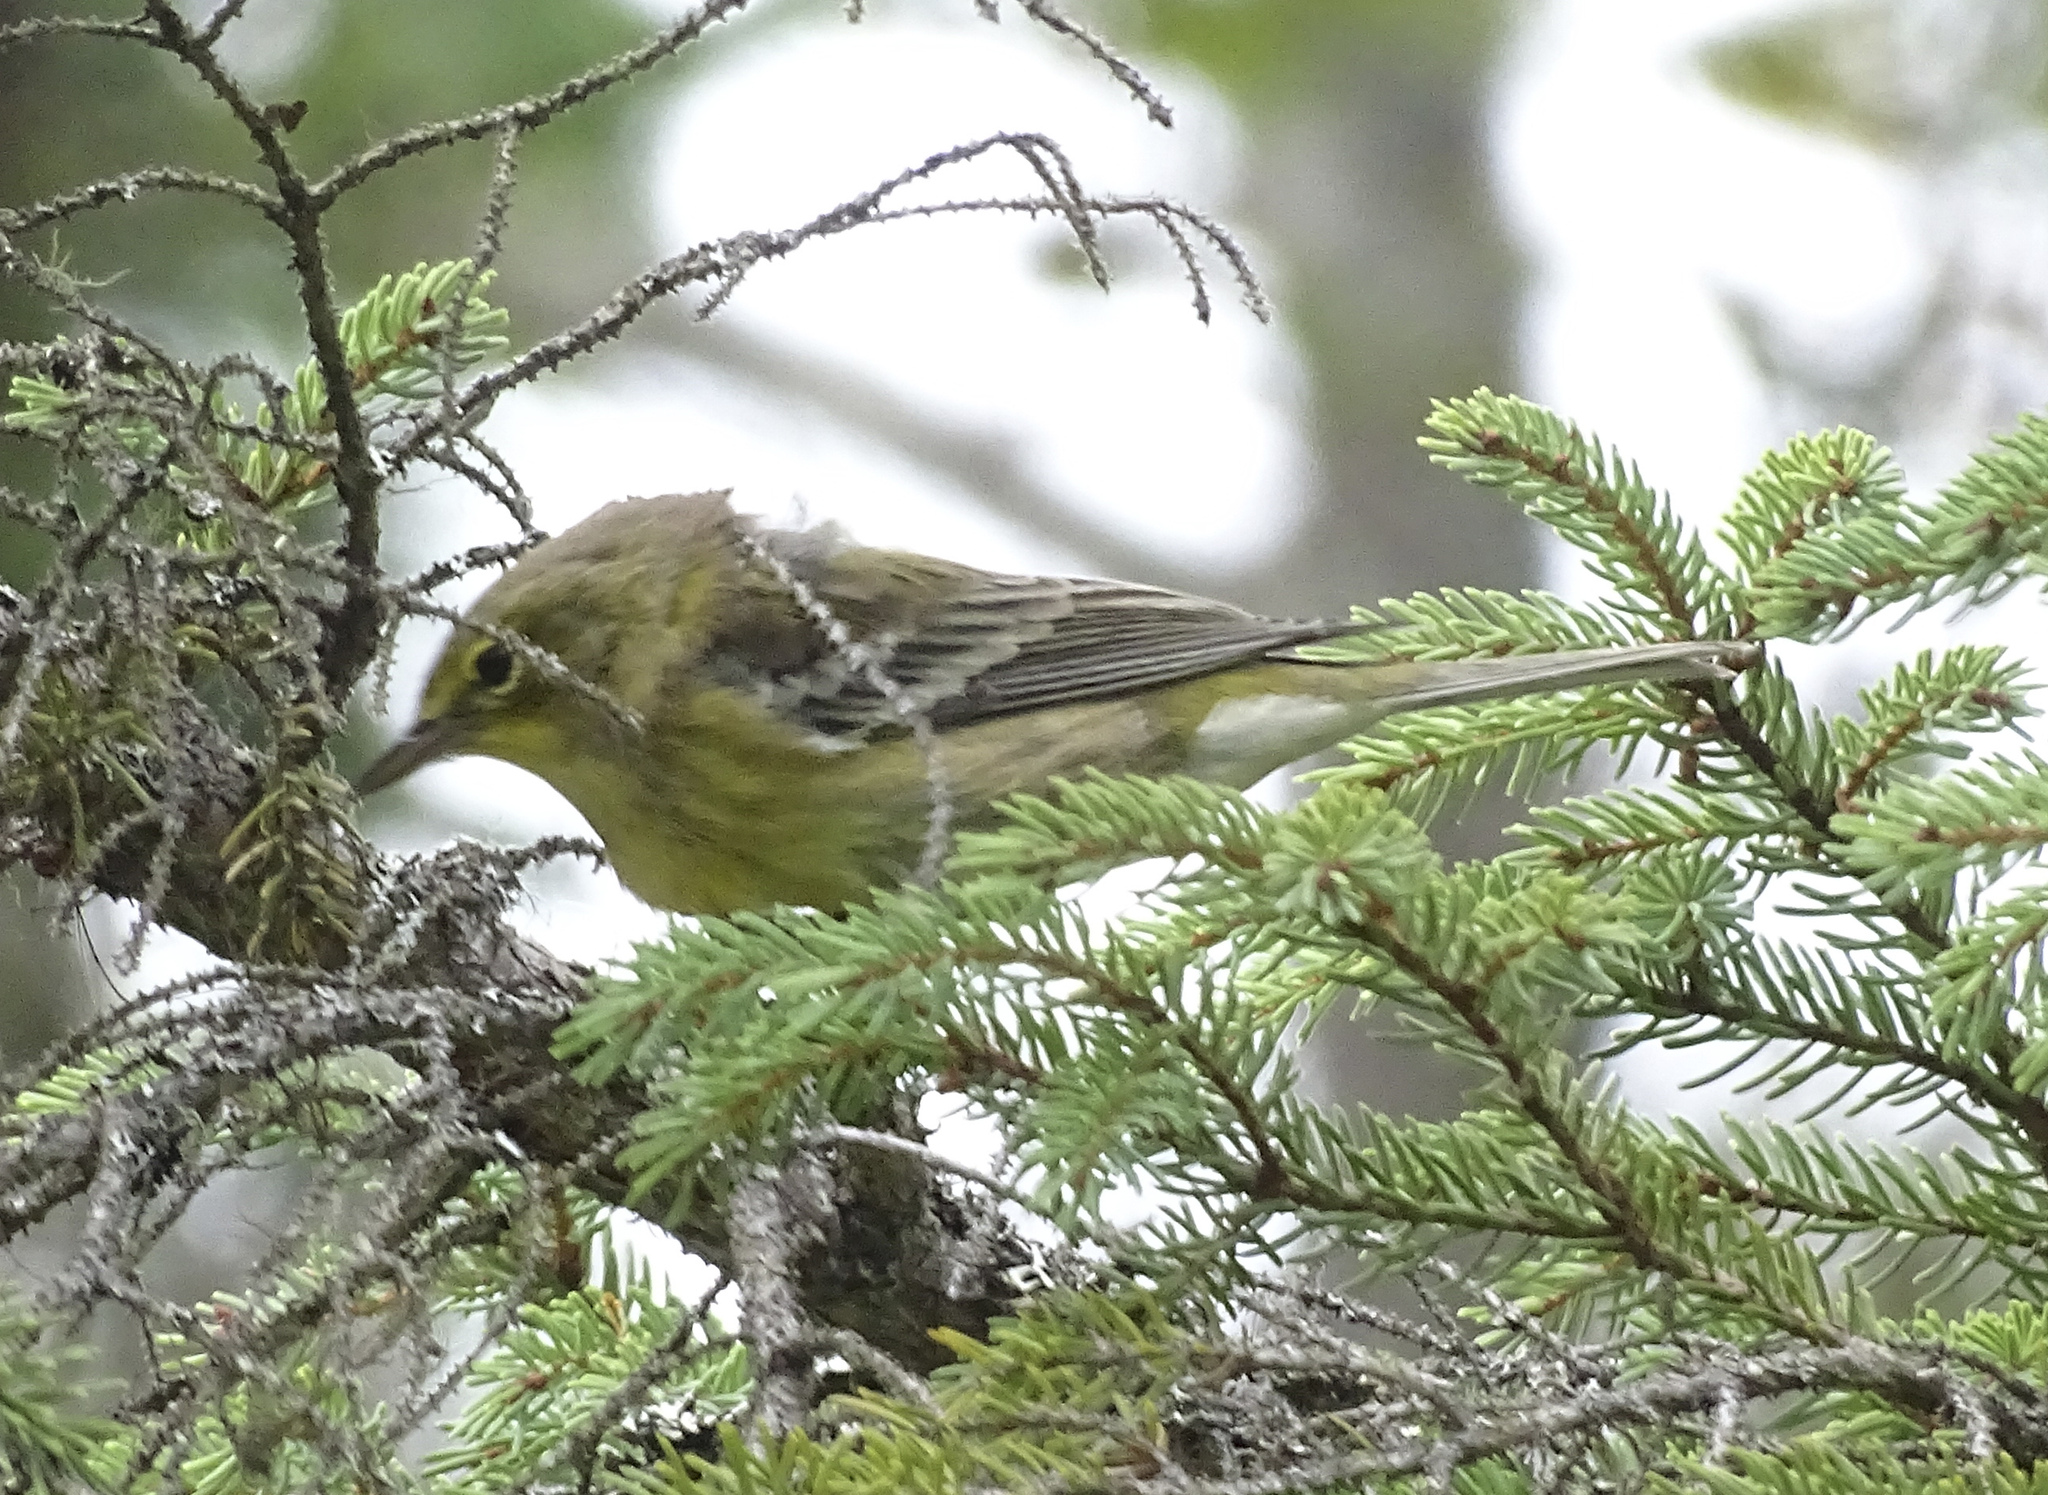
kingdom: Animalia
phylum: Chordata
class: Aves
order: Passeriformes
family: Parulidae
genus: Setophaga
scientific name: Setophaga pinus
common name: Pine warbler
